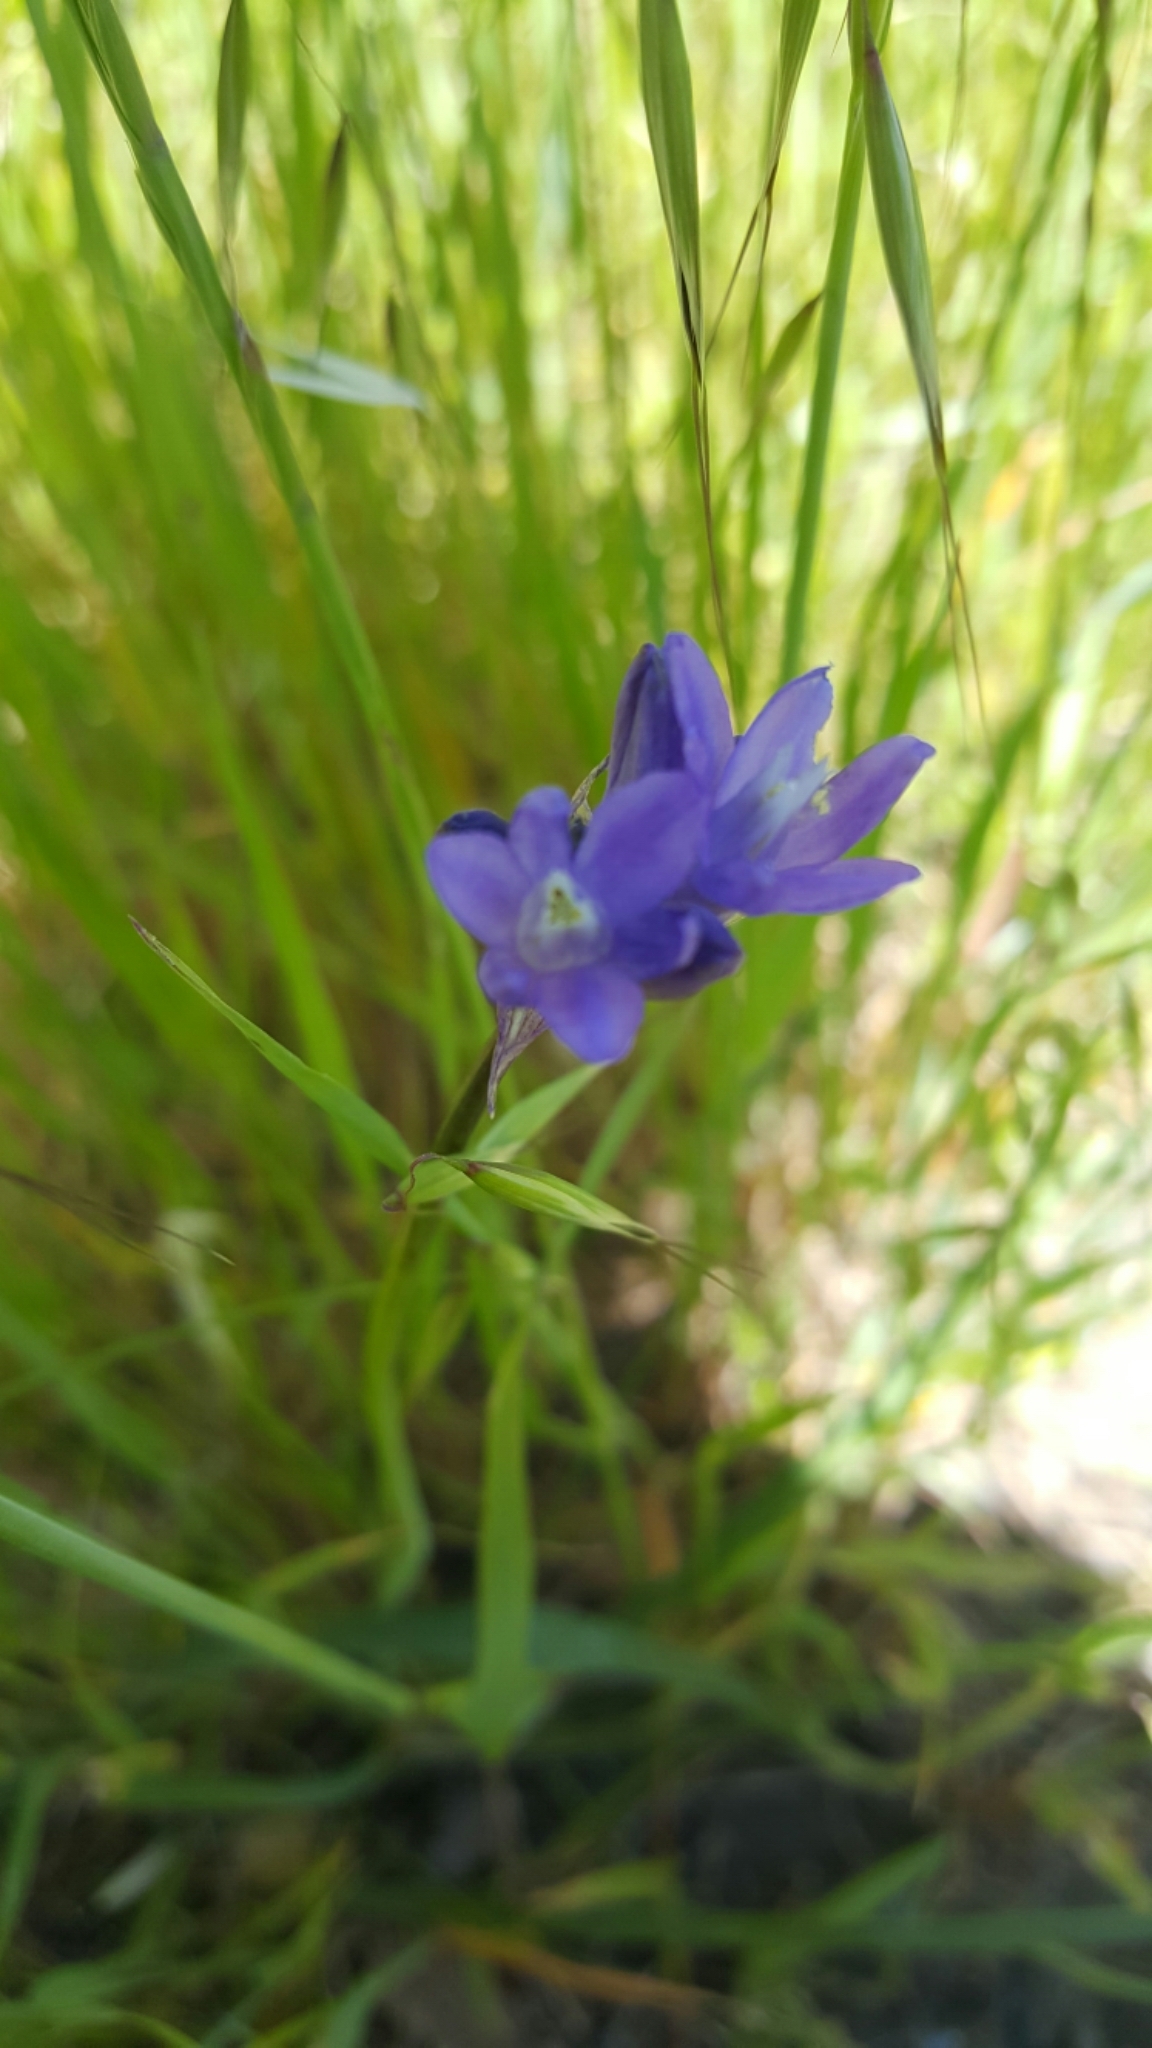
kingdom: Plantae
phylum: Tracheophyta
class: Liliopsida
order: Asparagales
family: Asparagaceae
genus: Dipterostemon
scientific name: Dipterostemon capitatus
